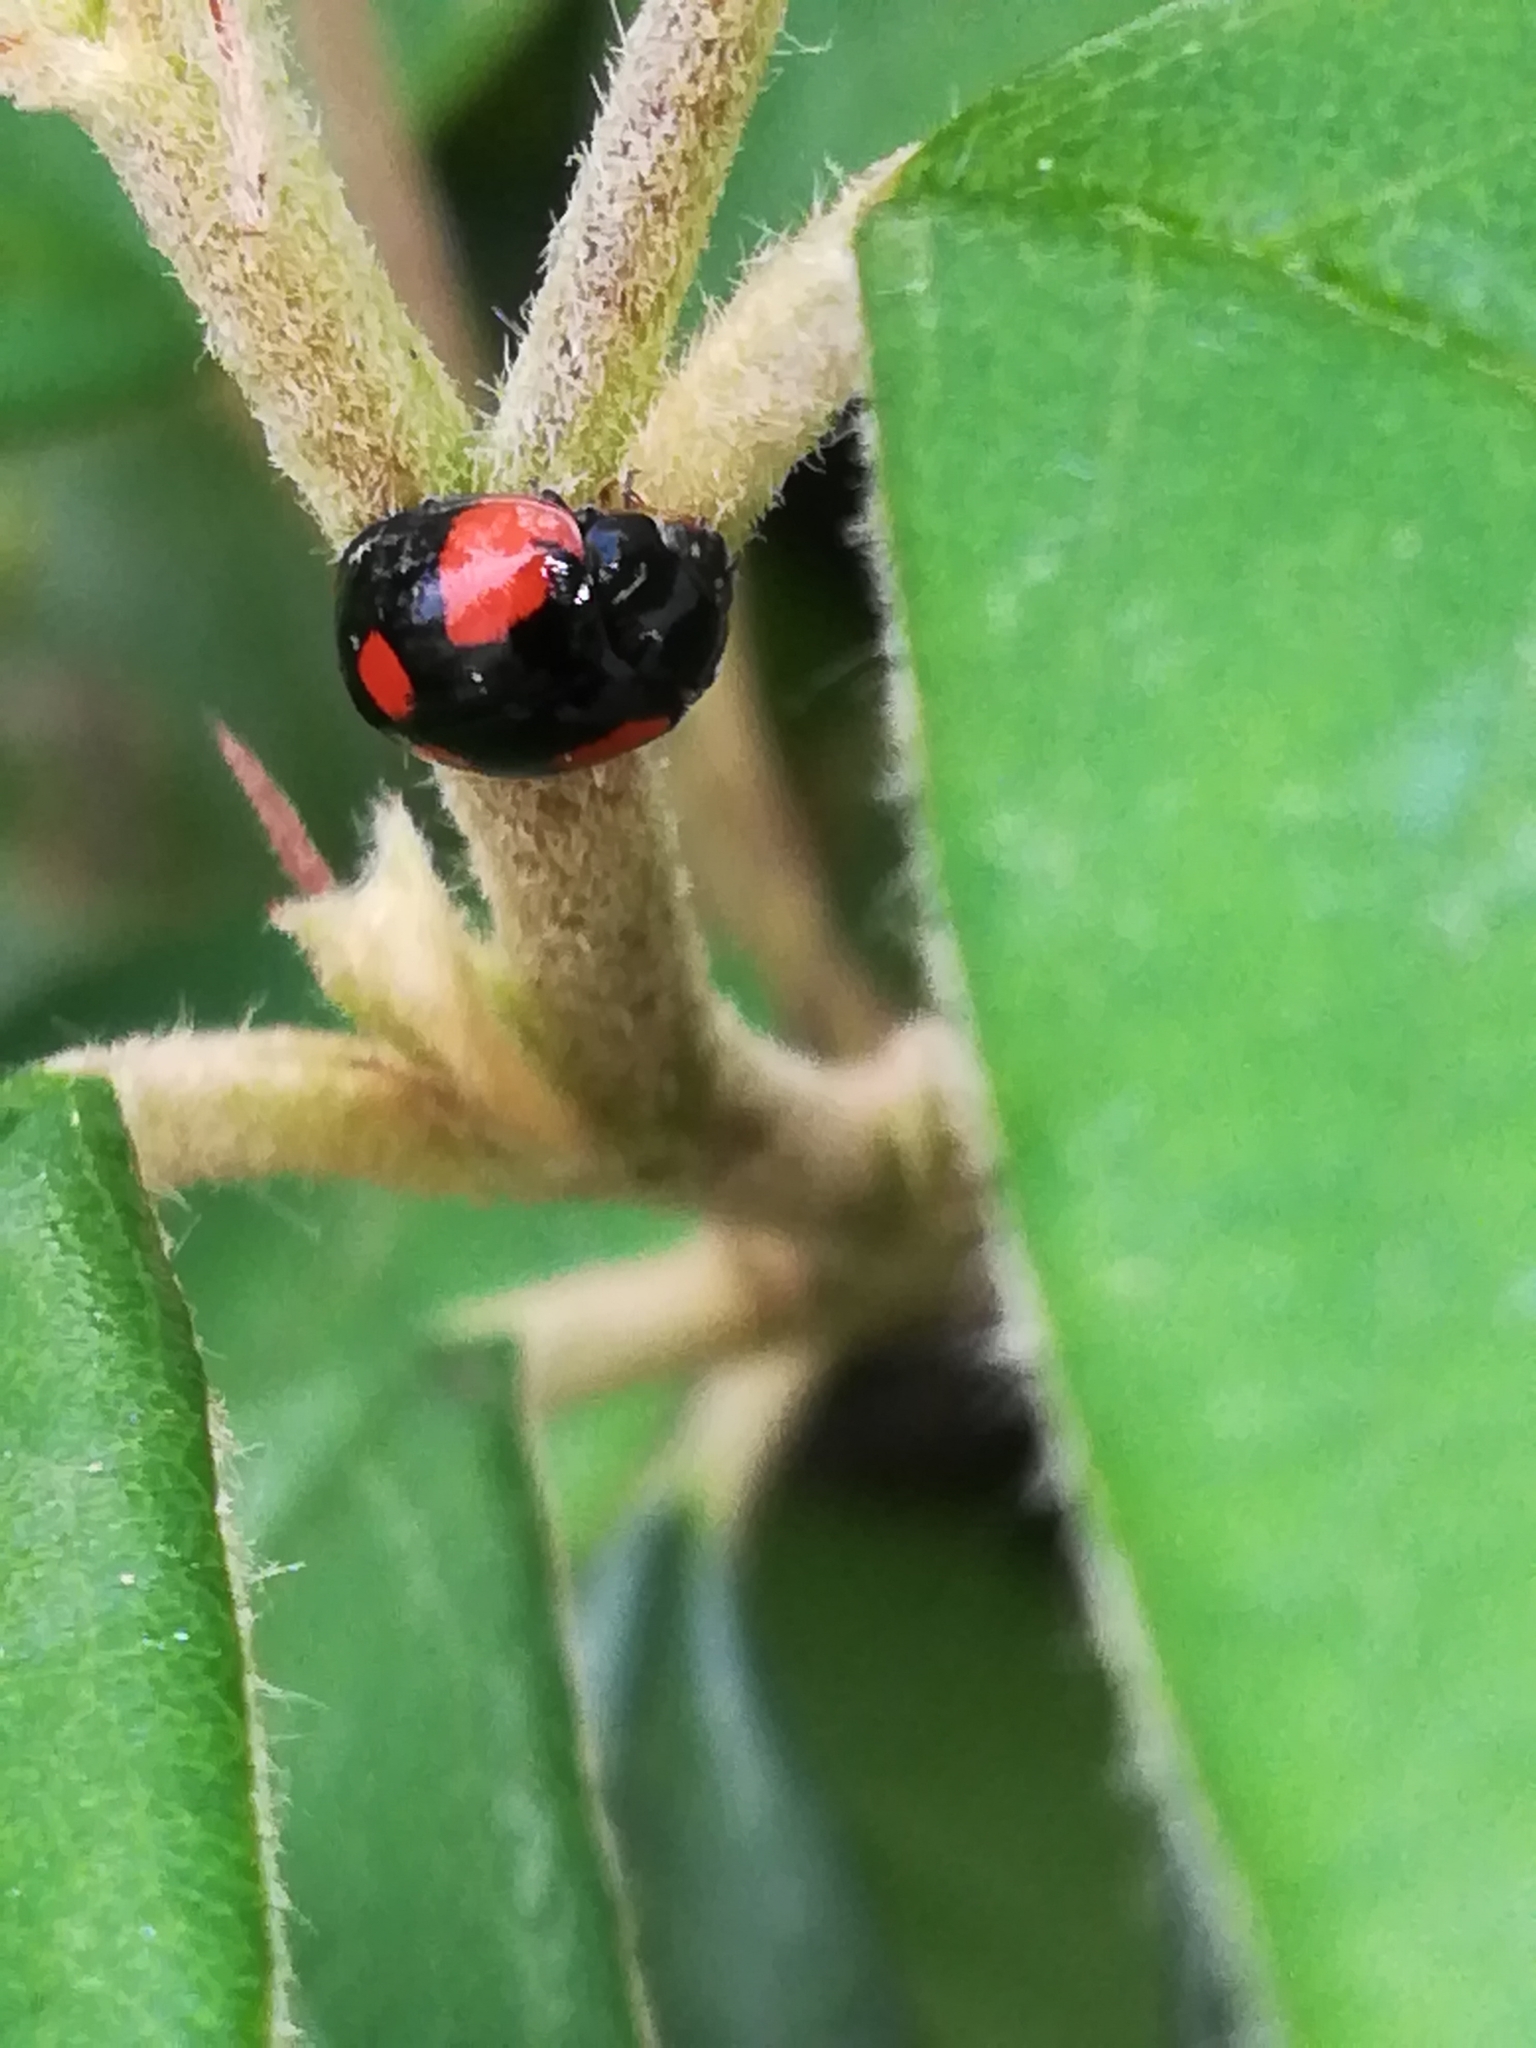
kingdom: Animalia
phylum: Arthropoda
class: Insecta
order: Coleoptera
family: Coccinellidae
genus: Adalia
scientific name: Adalia bipunctata
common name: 2-spot ladybird
